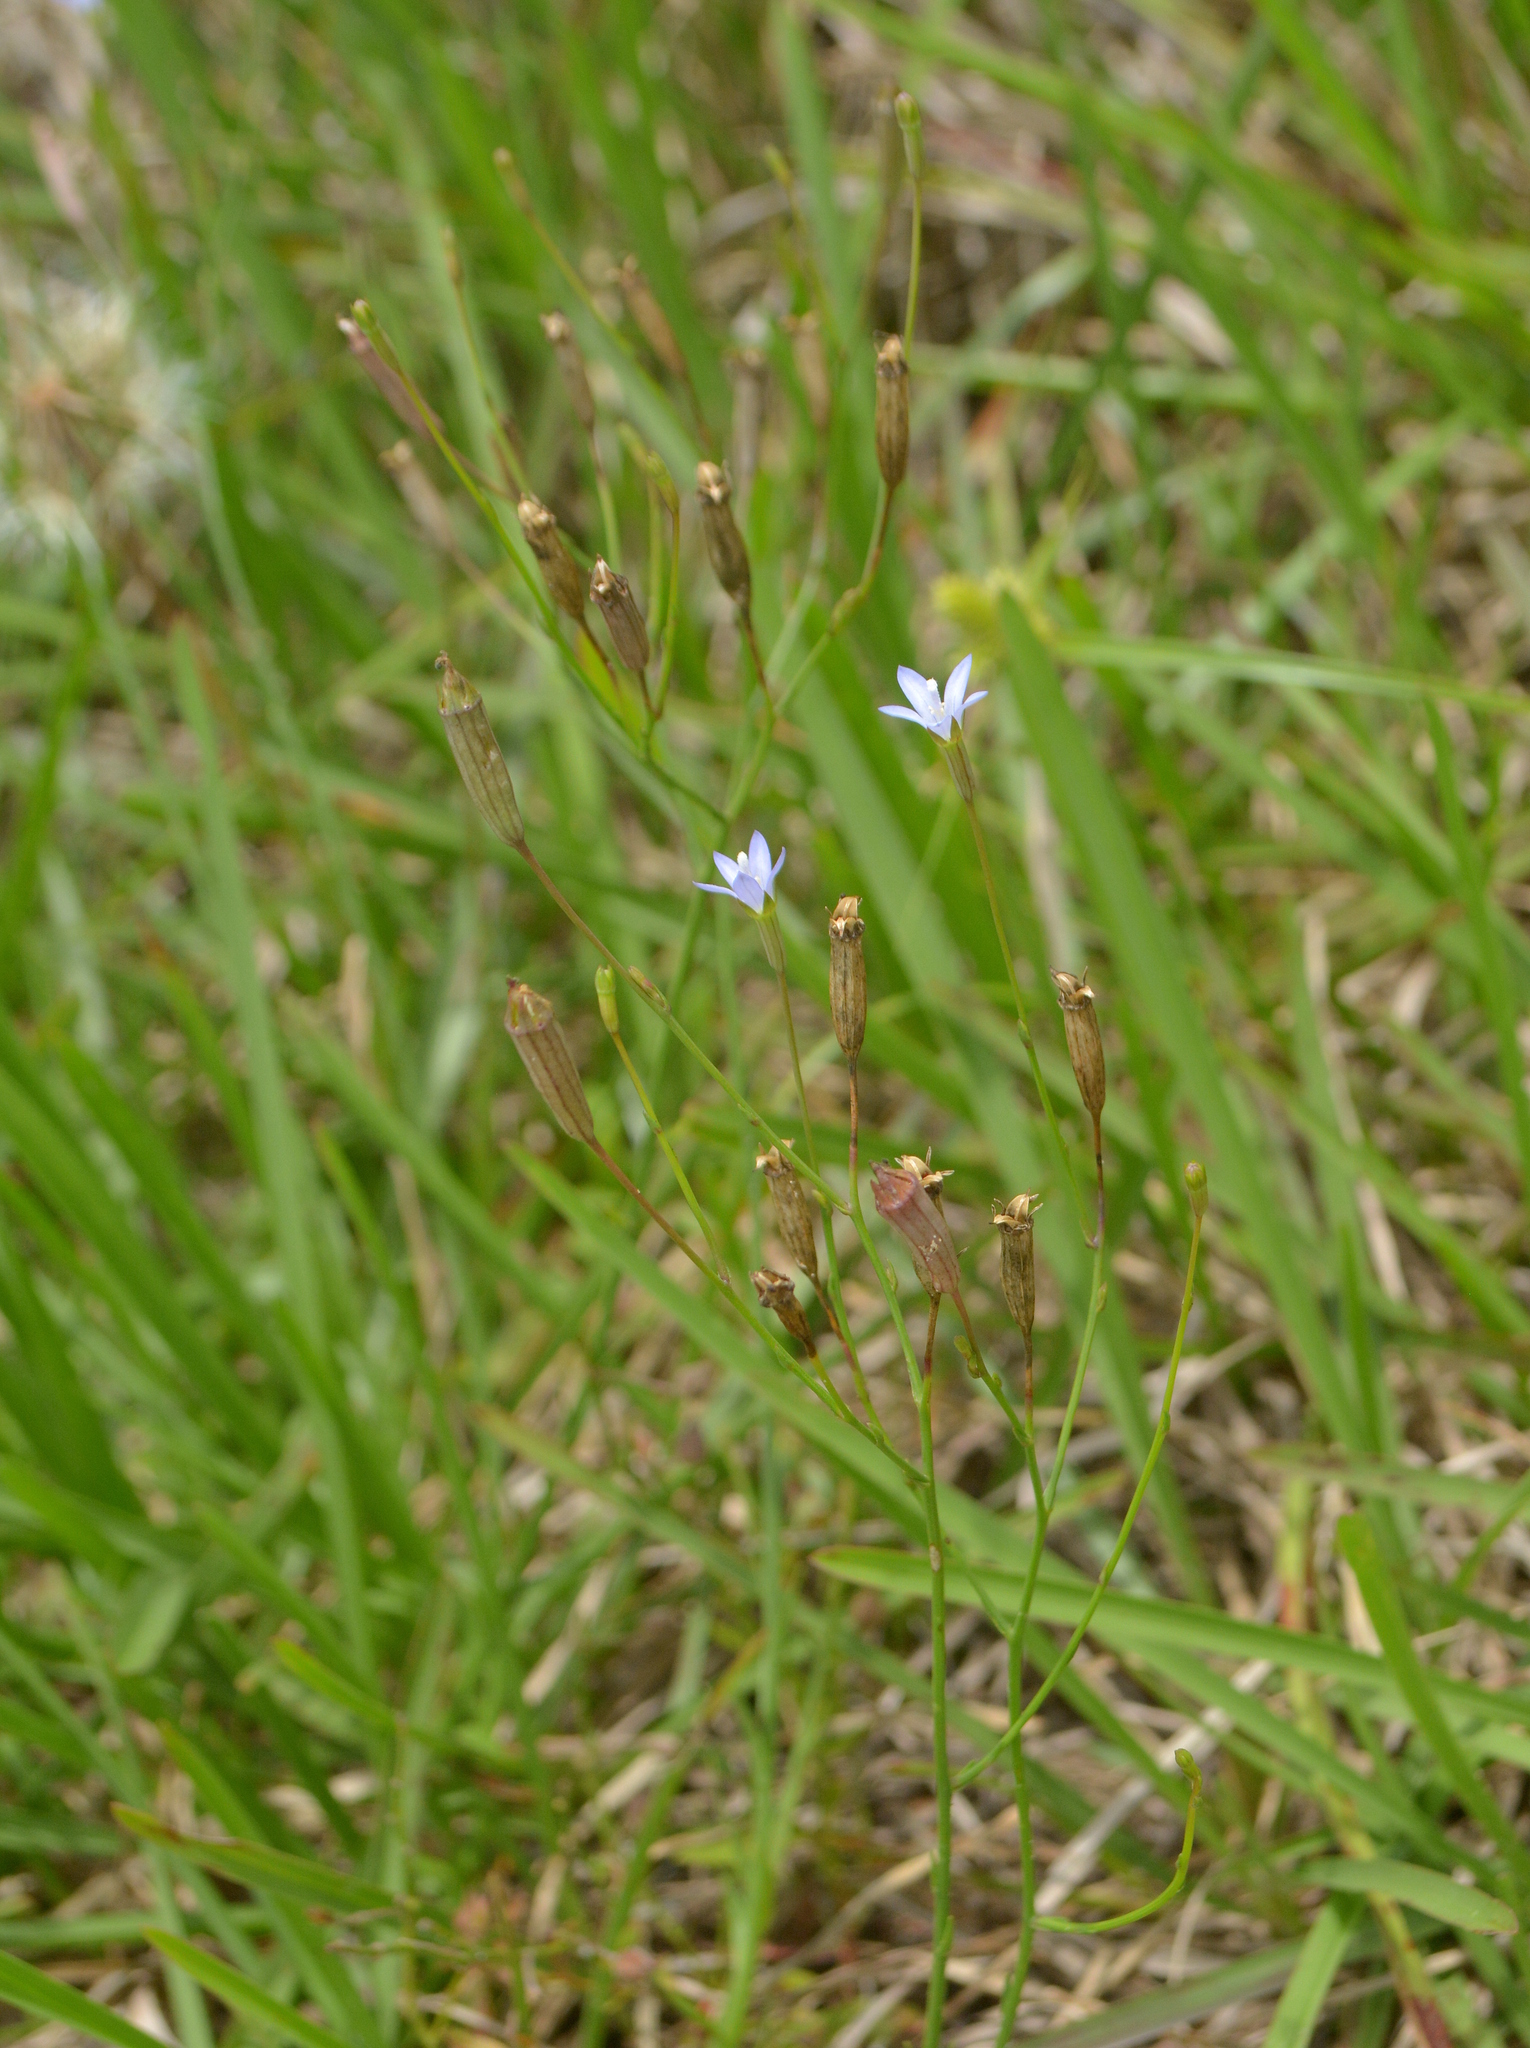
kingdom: Plantae
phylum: Tracheophyta
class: Magnoliopsida
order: Asterales
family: Campanulaceae
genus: Wahlenbergia
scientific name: Wahlenbergia linarioides
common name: Tuffybells
